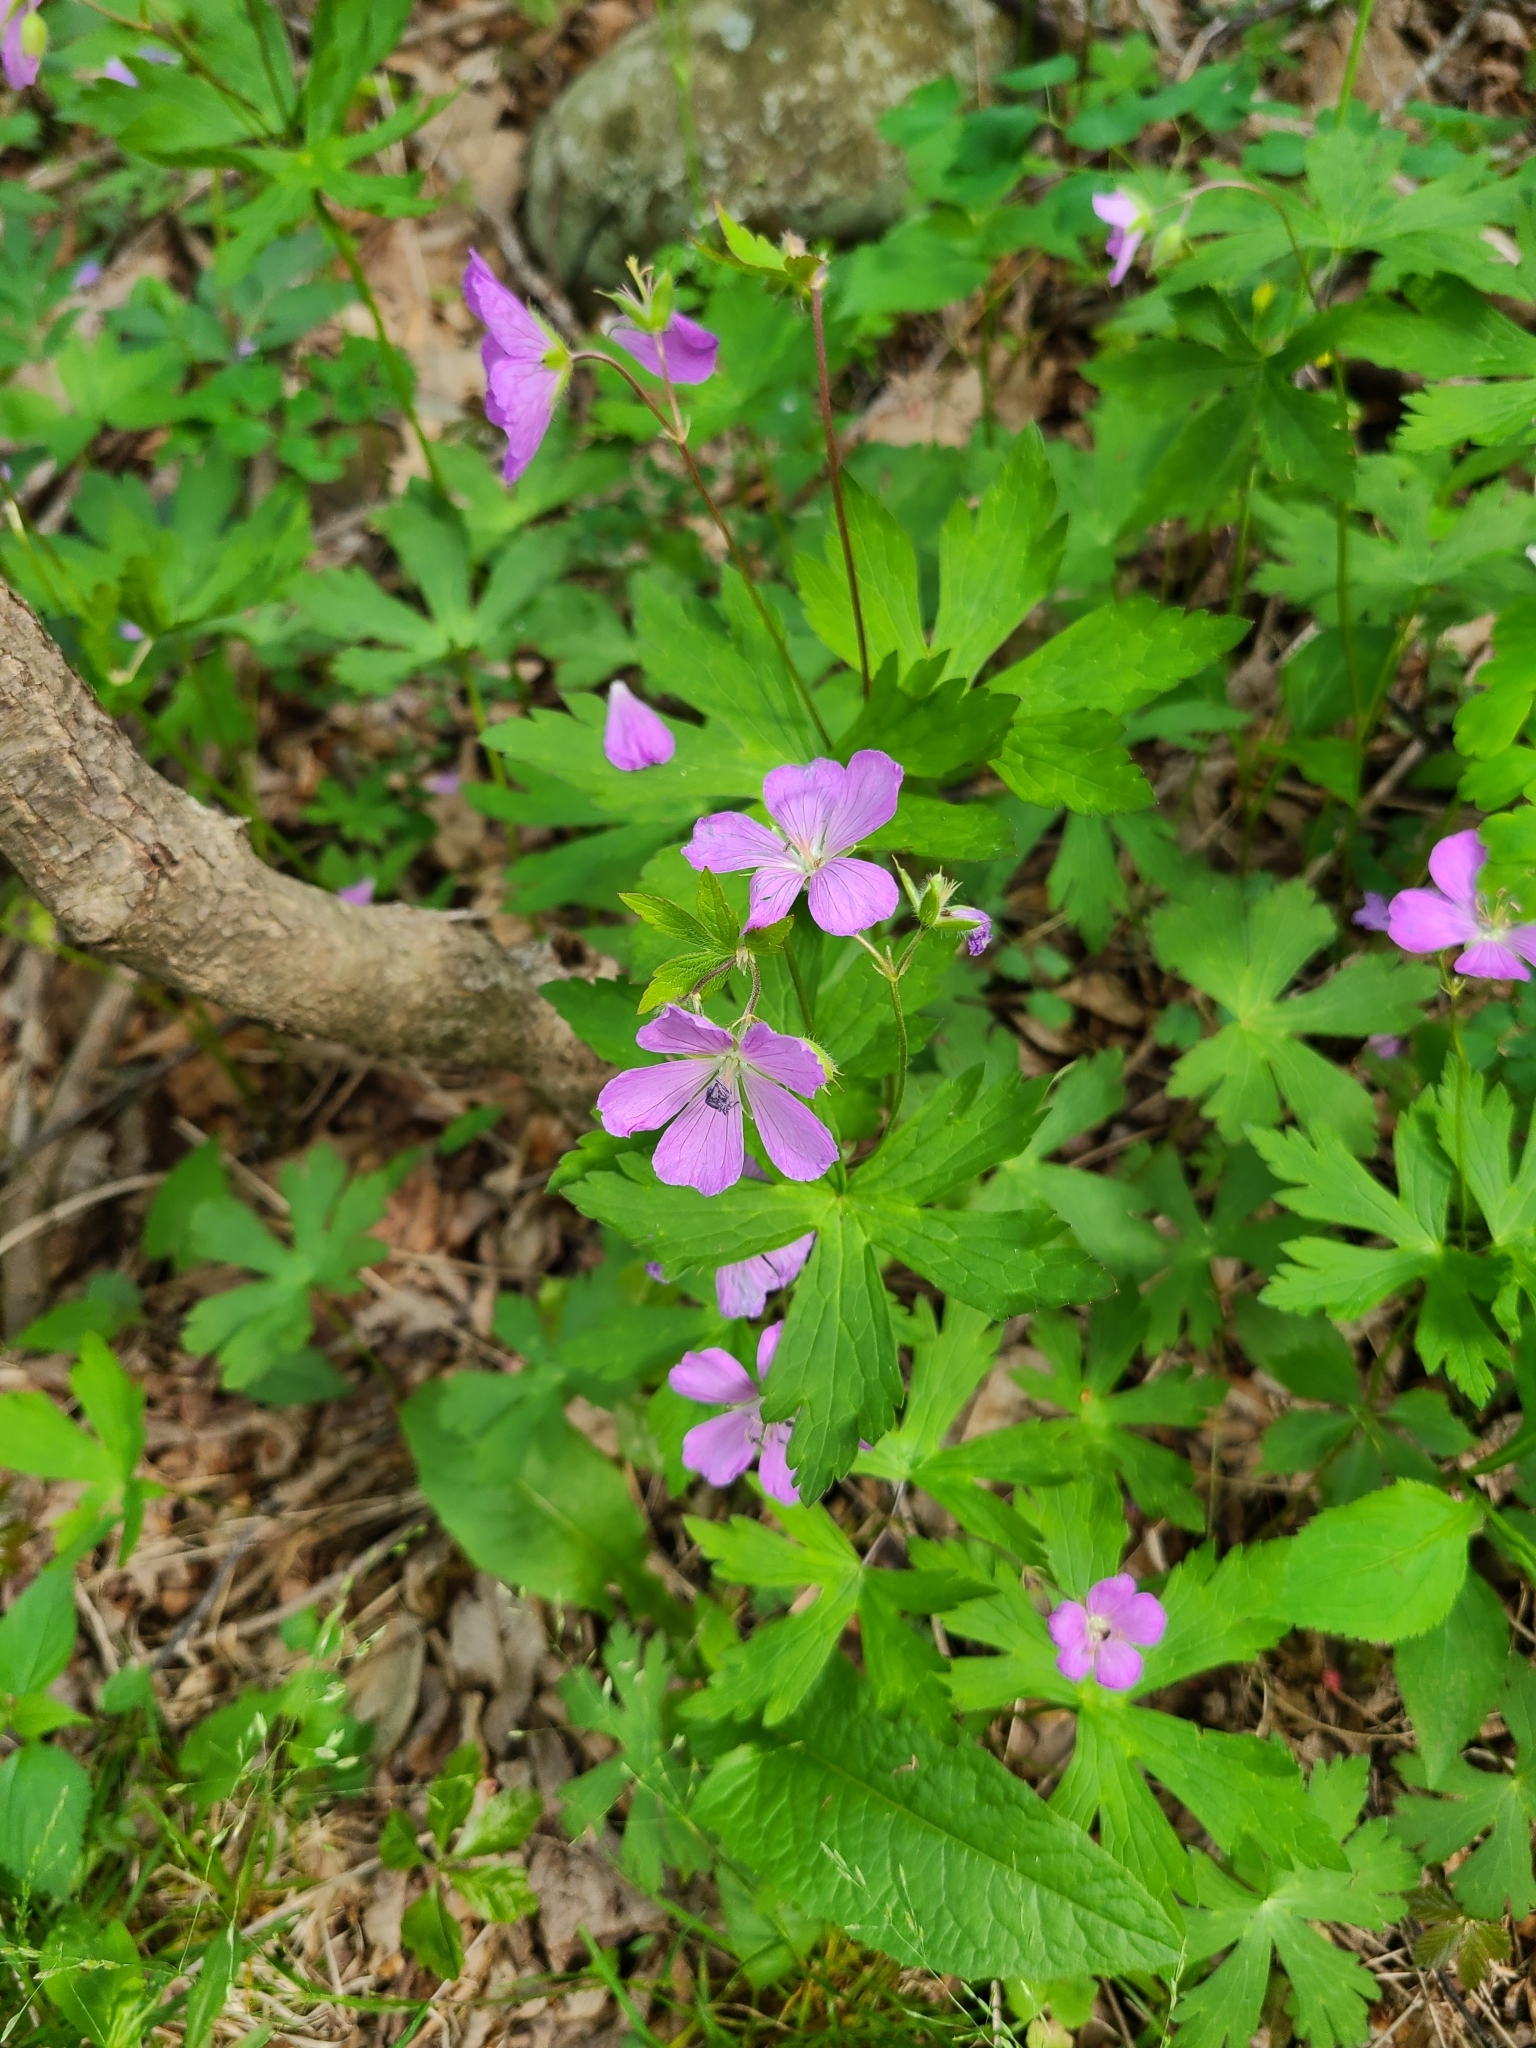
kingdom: Plantae
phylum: Tracheophyta
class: Magnoliopsida
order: Geraniales
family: Geraniaceae
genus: Geranium
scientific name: Geranium maculatum
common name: Spotted geranium
